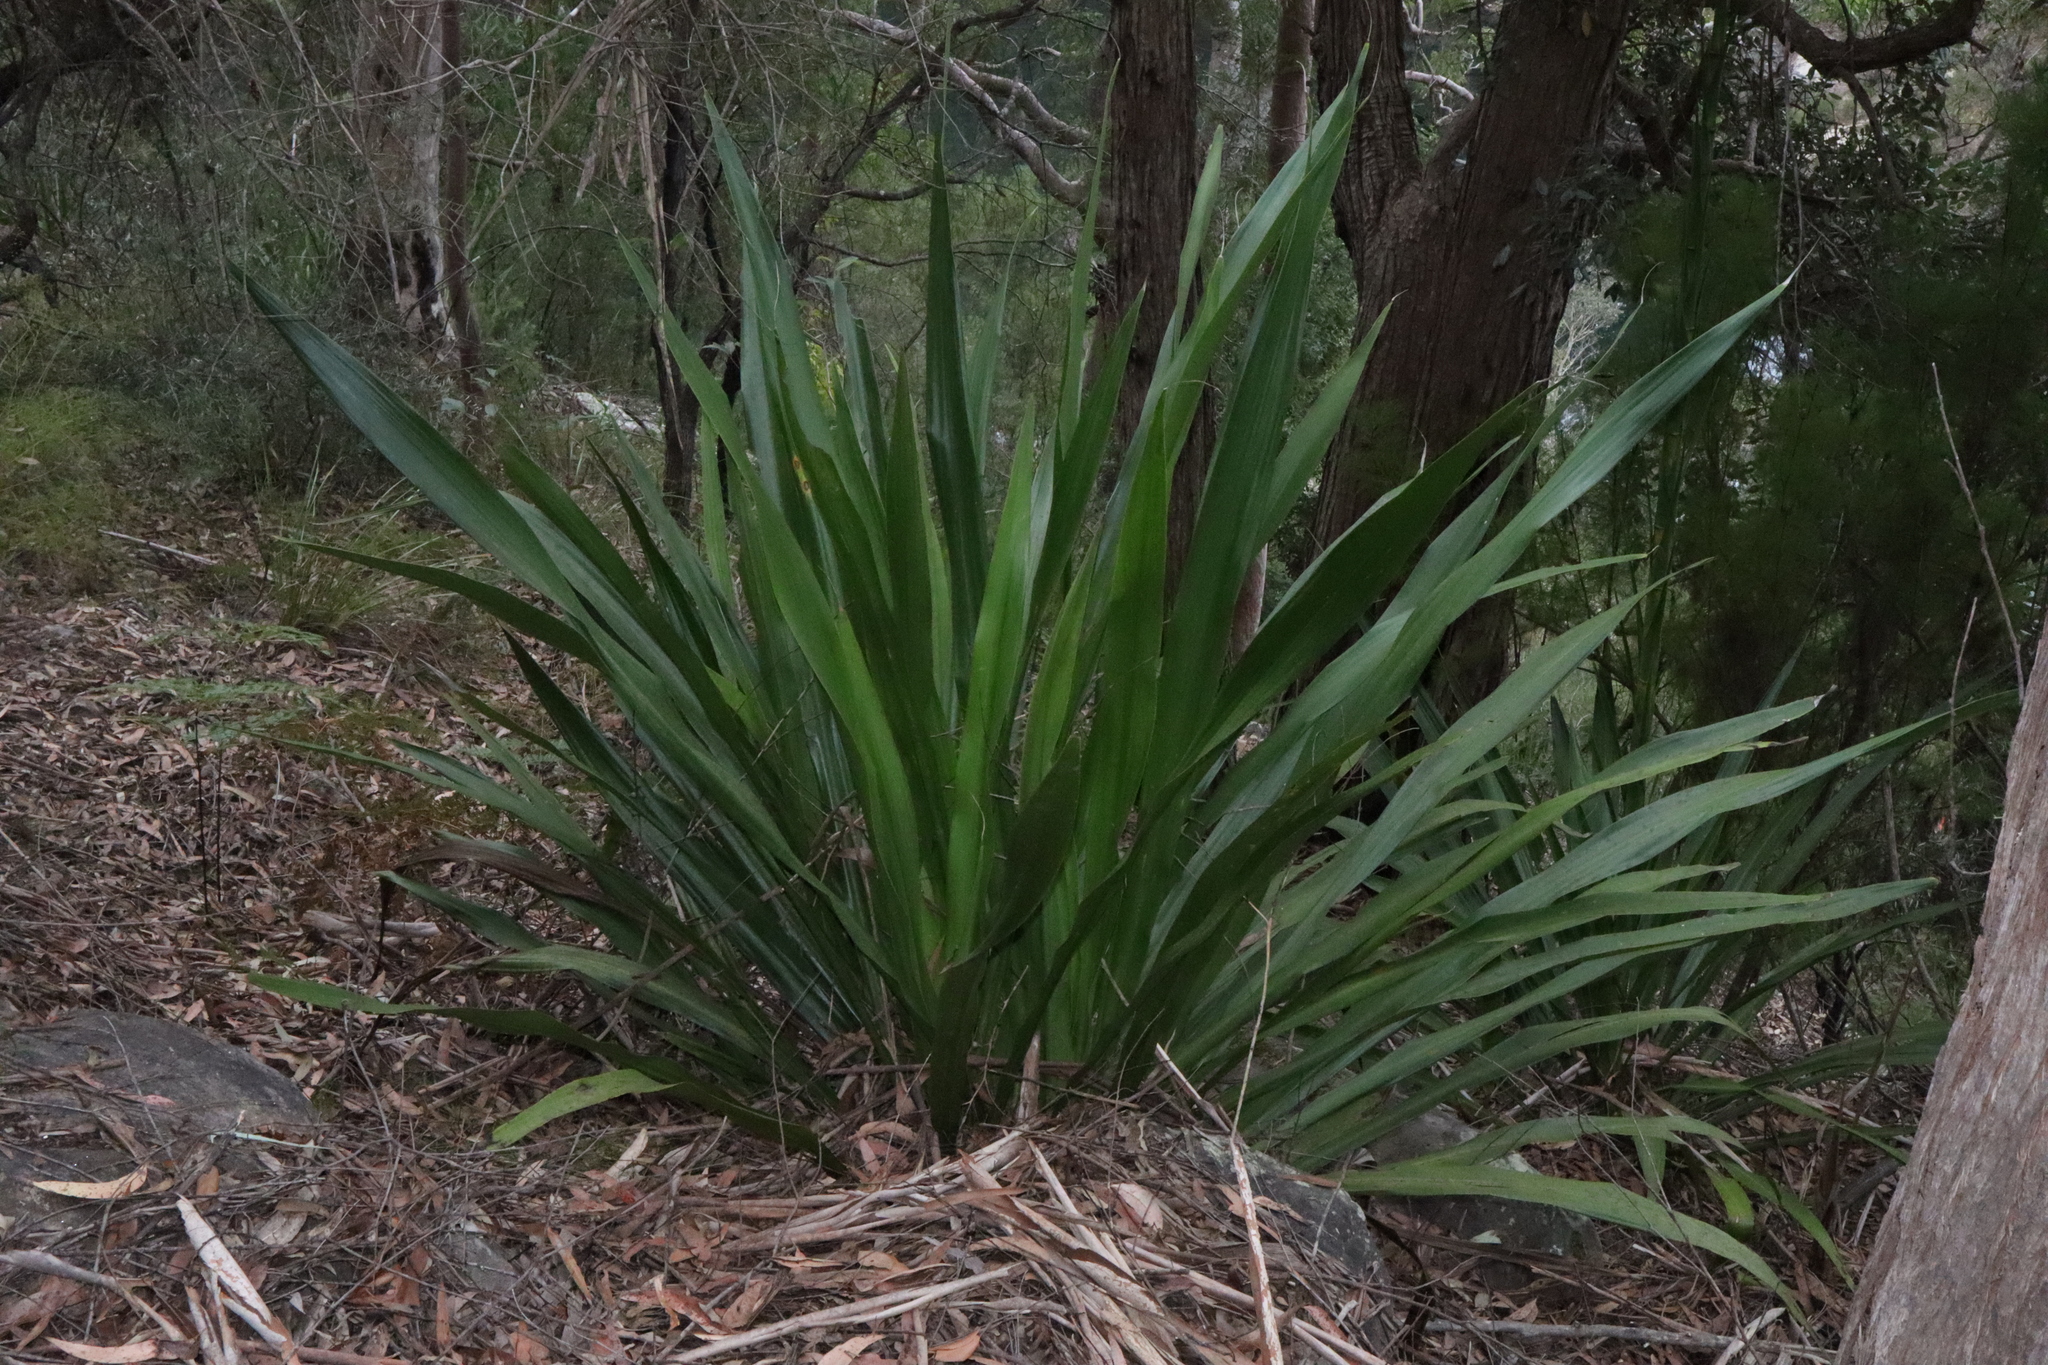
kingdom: Plantae
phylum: Tracheophyta
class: Liliopsida
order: Asparagales
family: Doryanthaceae
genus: Doryanthes
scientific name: Doryanthes excelsa
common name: Giant-lily
